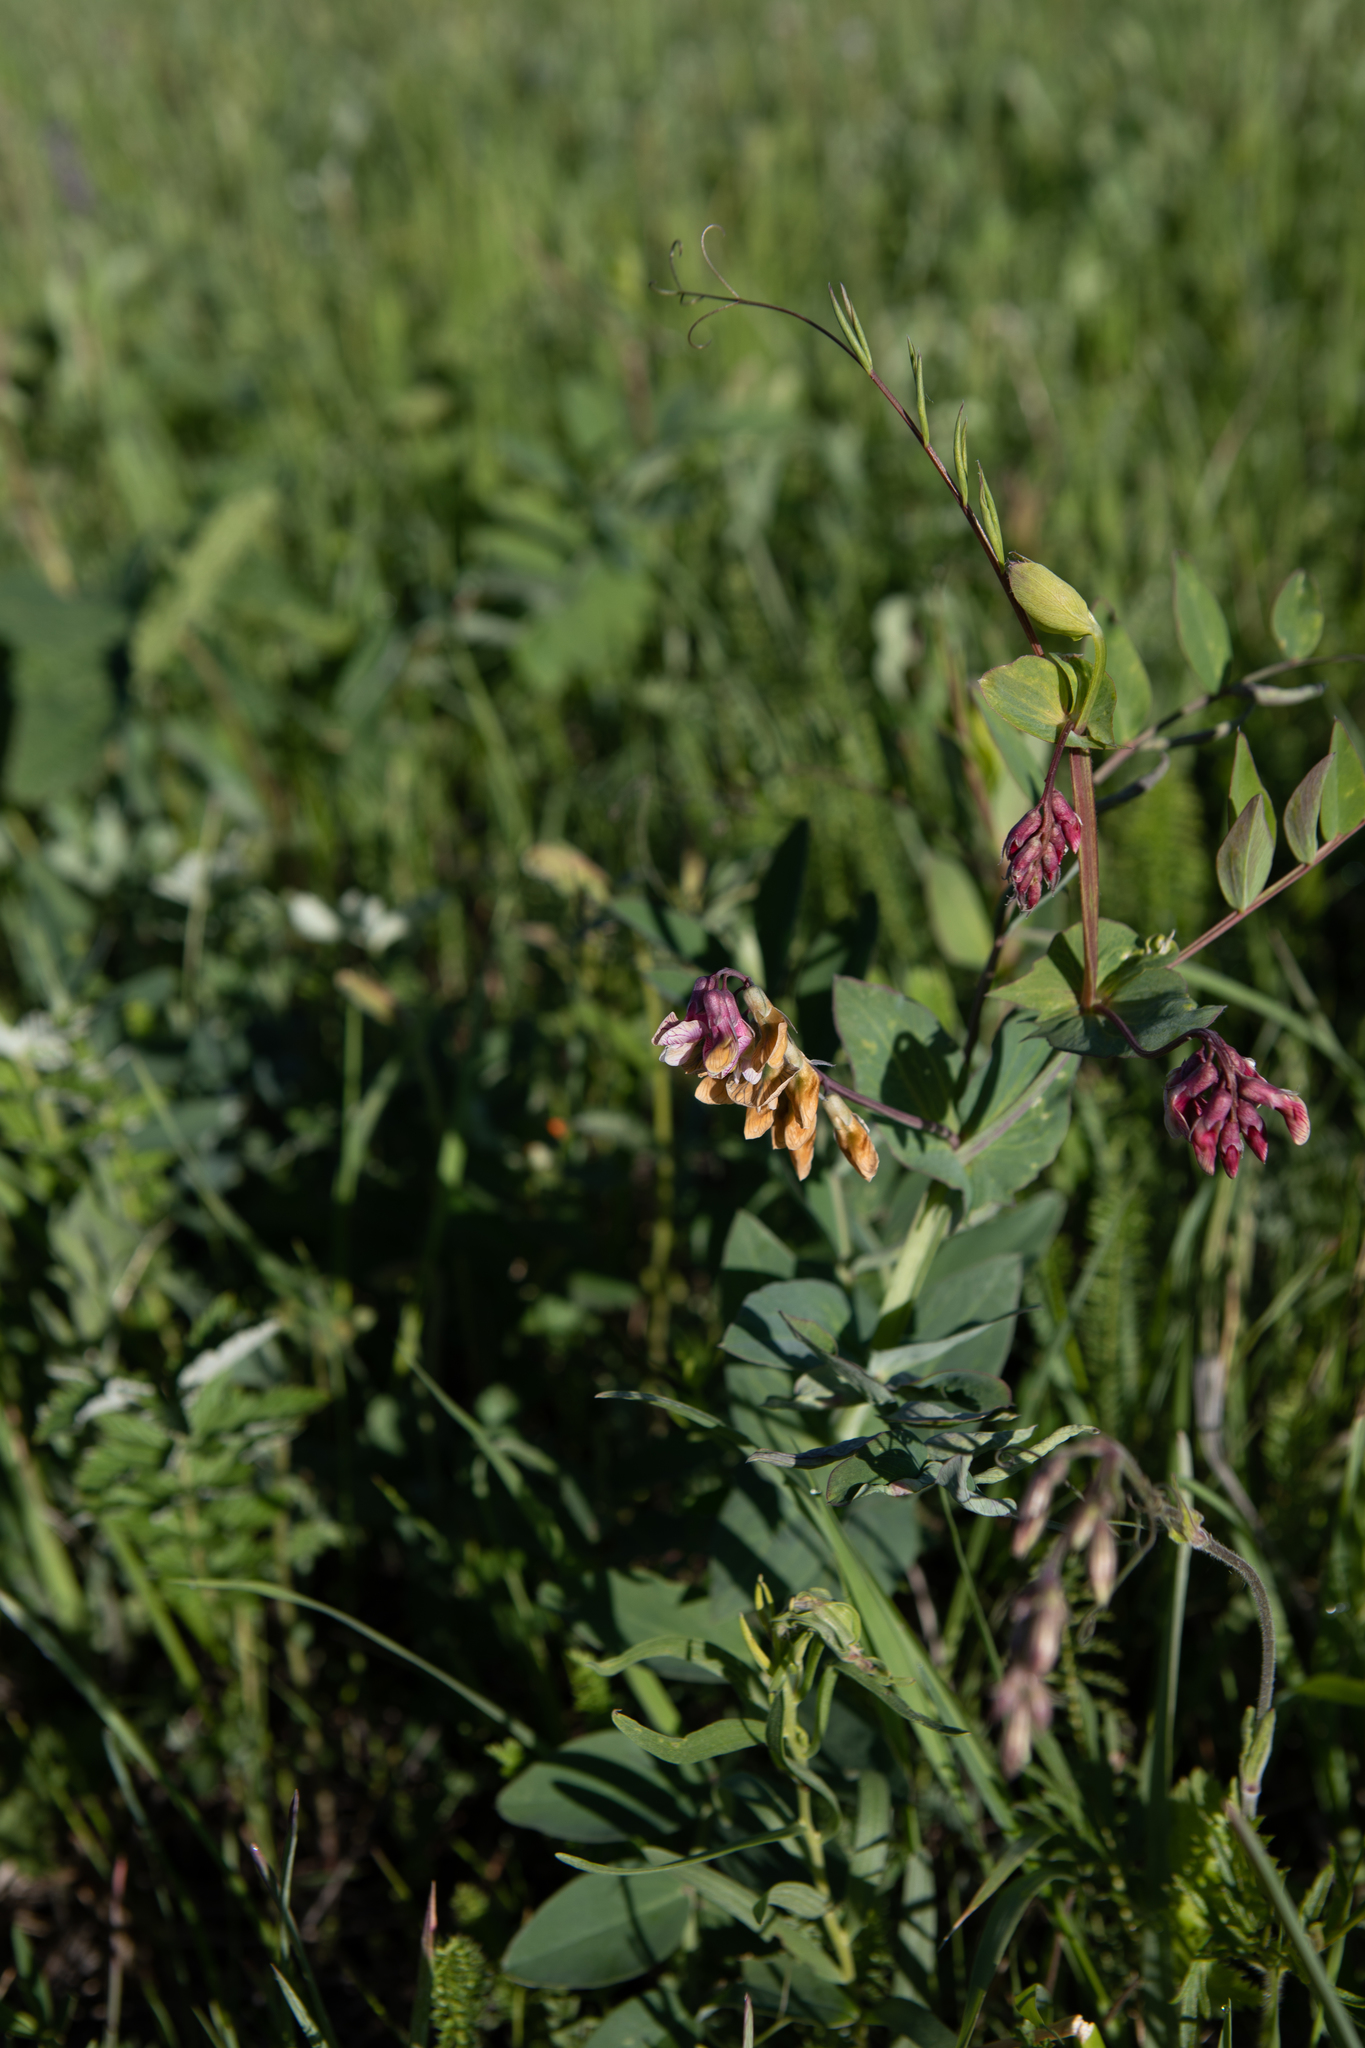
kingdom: Plantae
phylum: Tracheophyta
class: Magnoliopsida
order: Fabales
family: Fabaceae
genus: Lathyrus
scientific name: Lathyrus pisiformis
